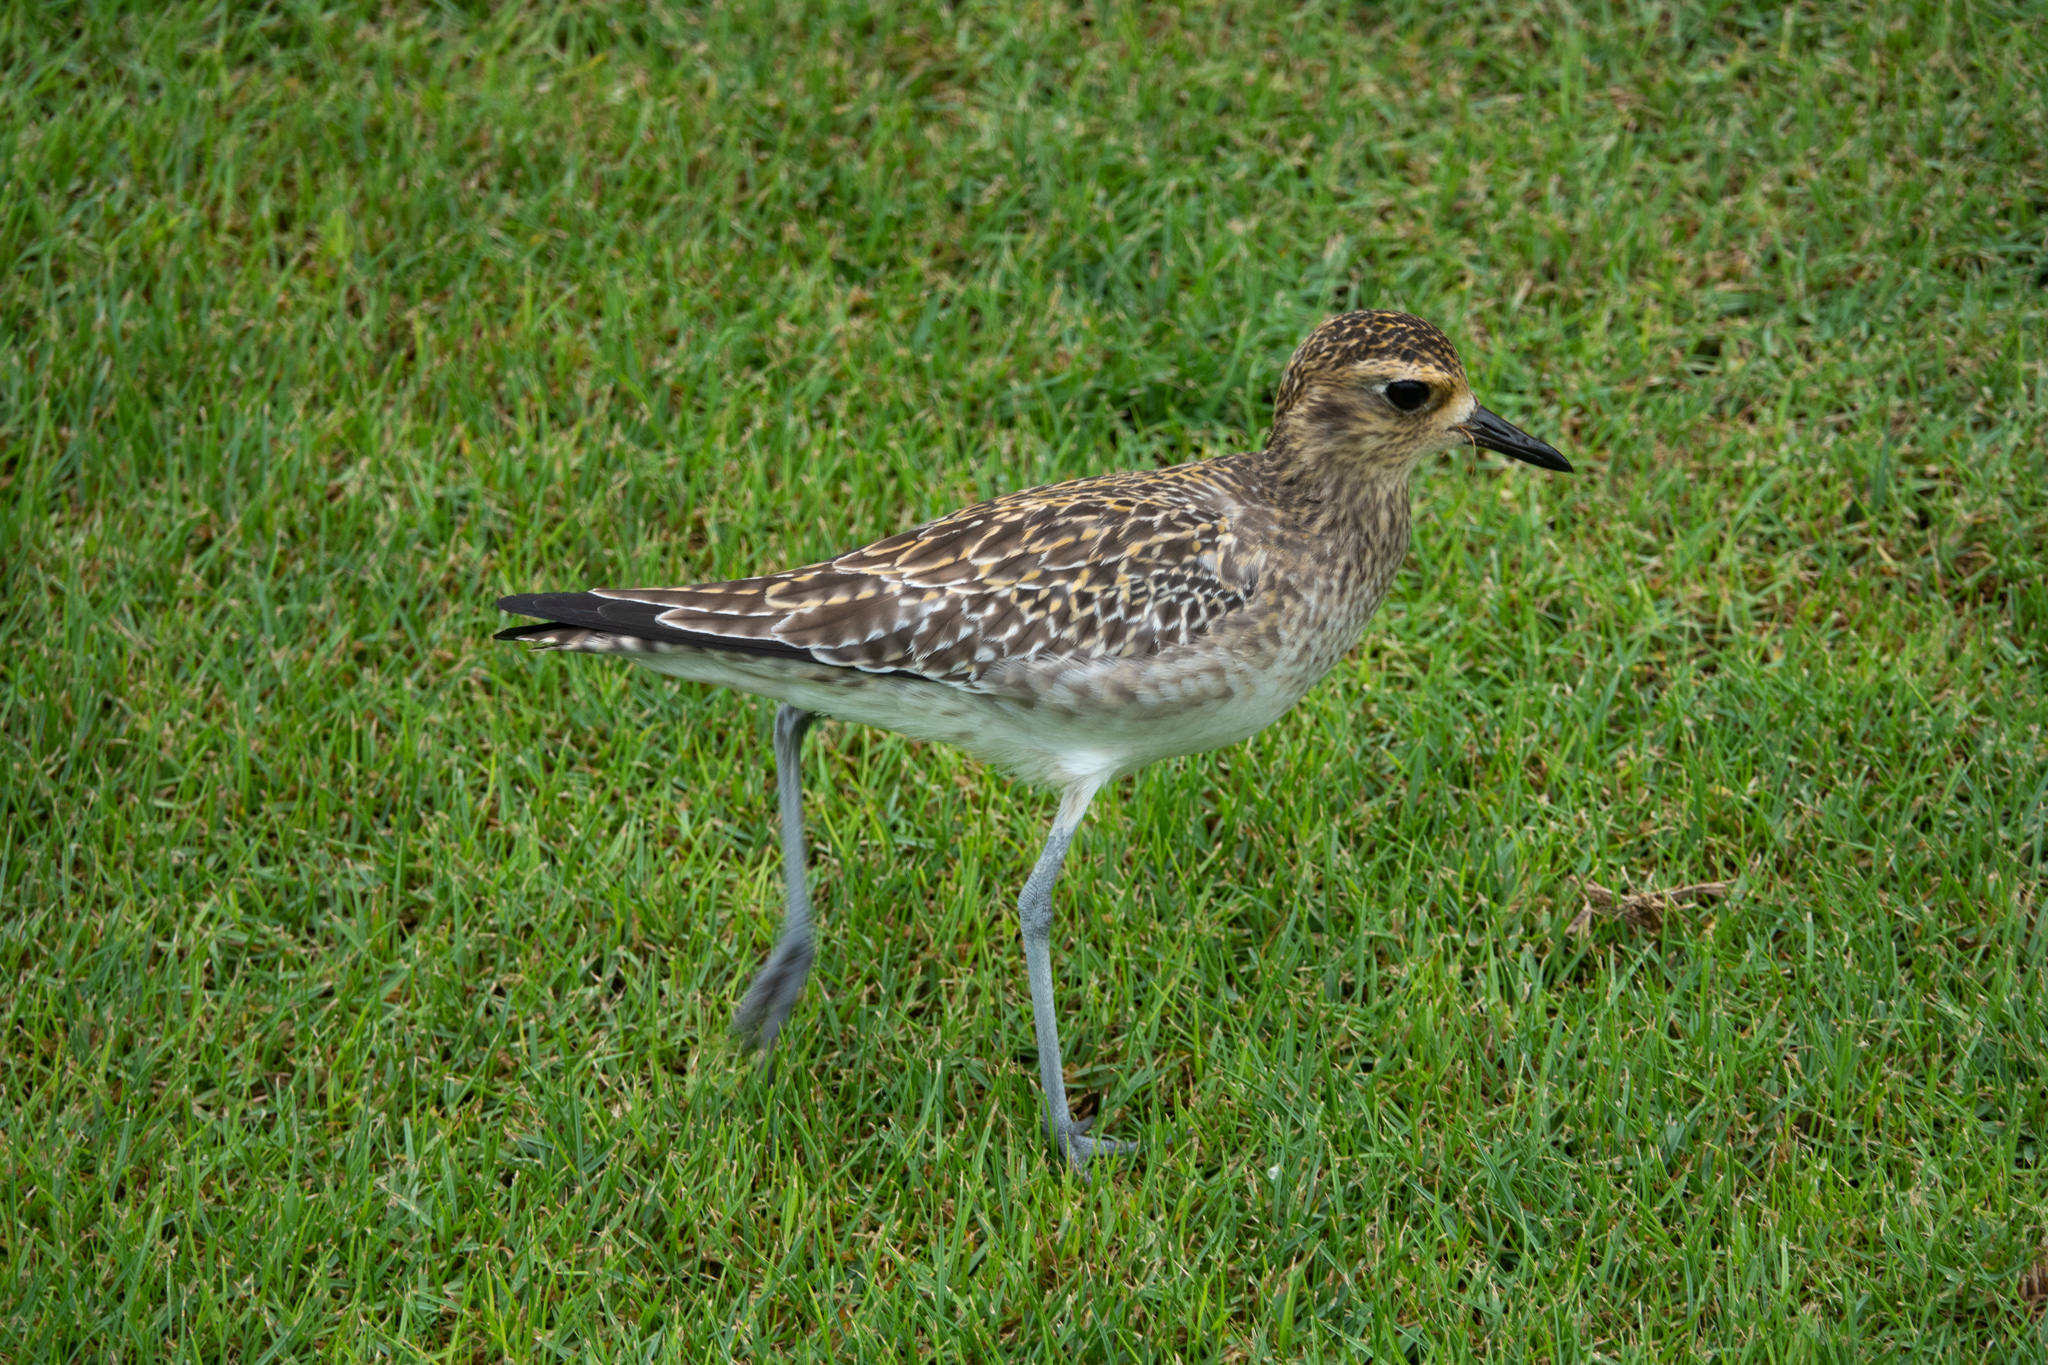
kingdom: Animalia
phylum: Chordata
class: Aves
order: Charadriiformes
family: Charadriidae
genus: Pluvialis
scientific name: Pluvialis fulva
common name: Pacific golden plover
